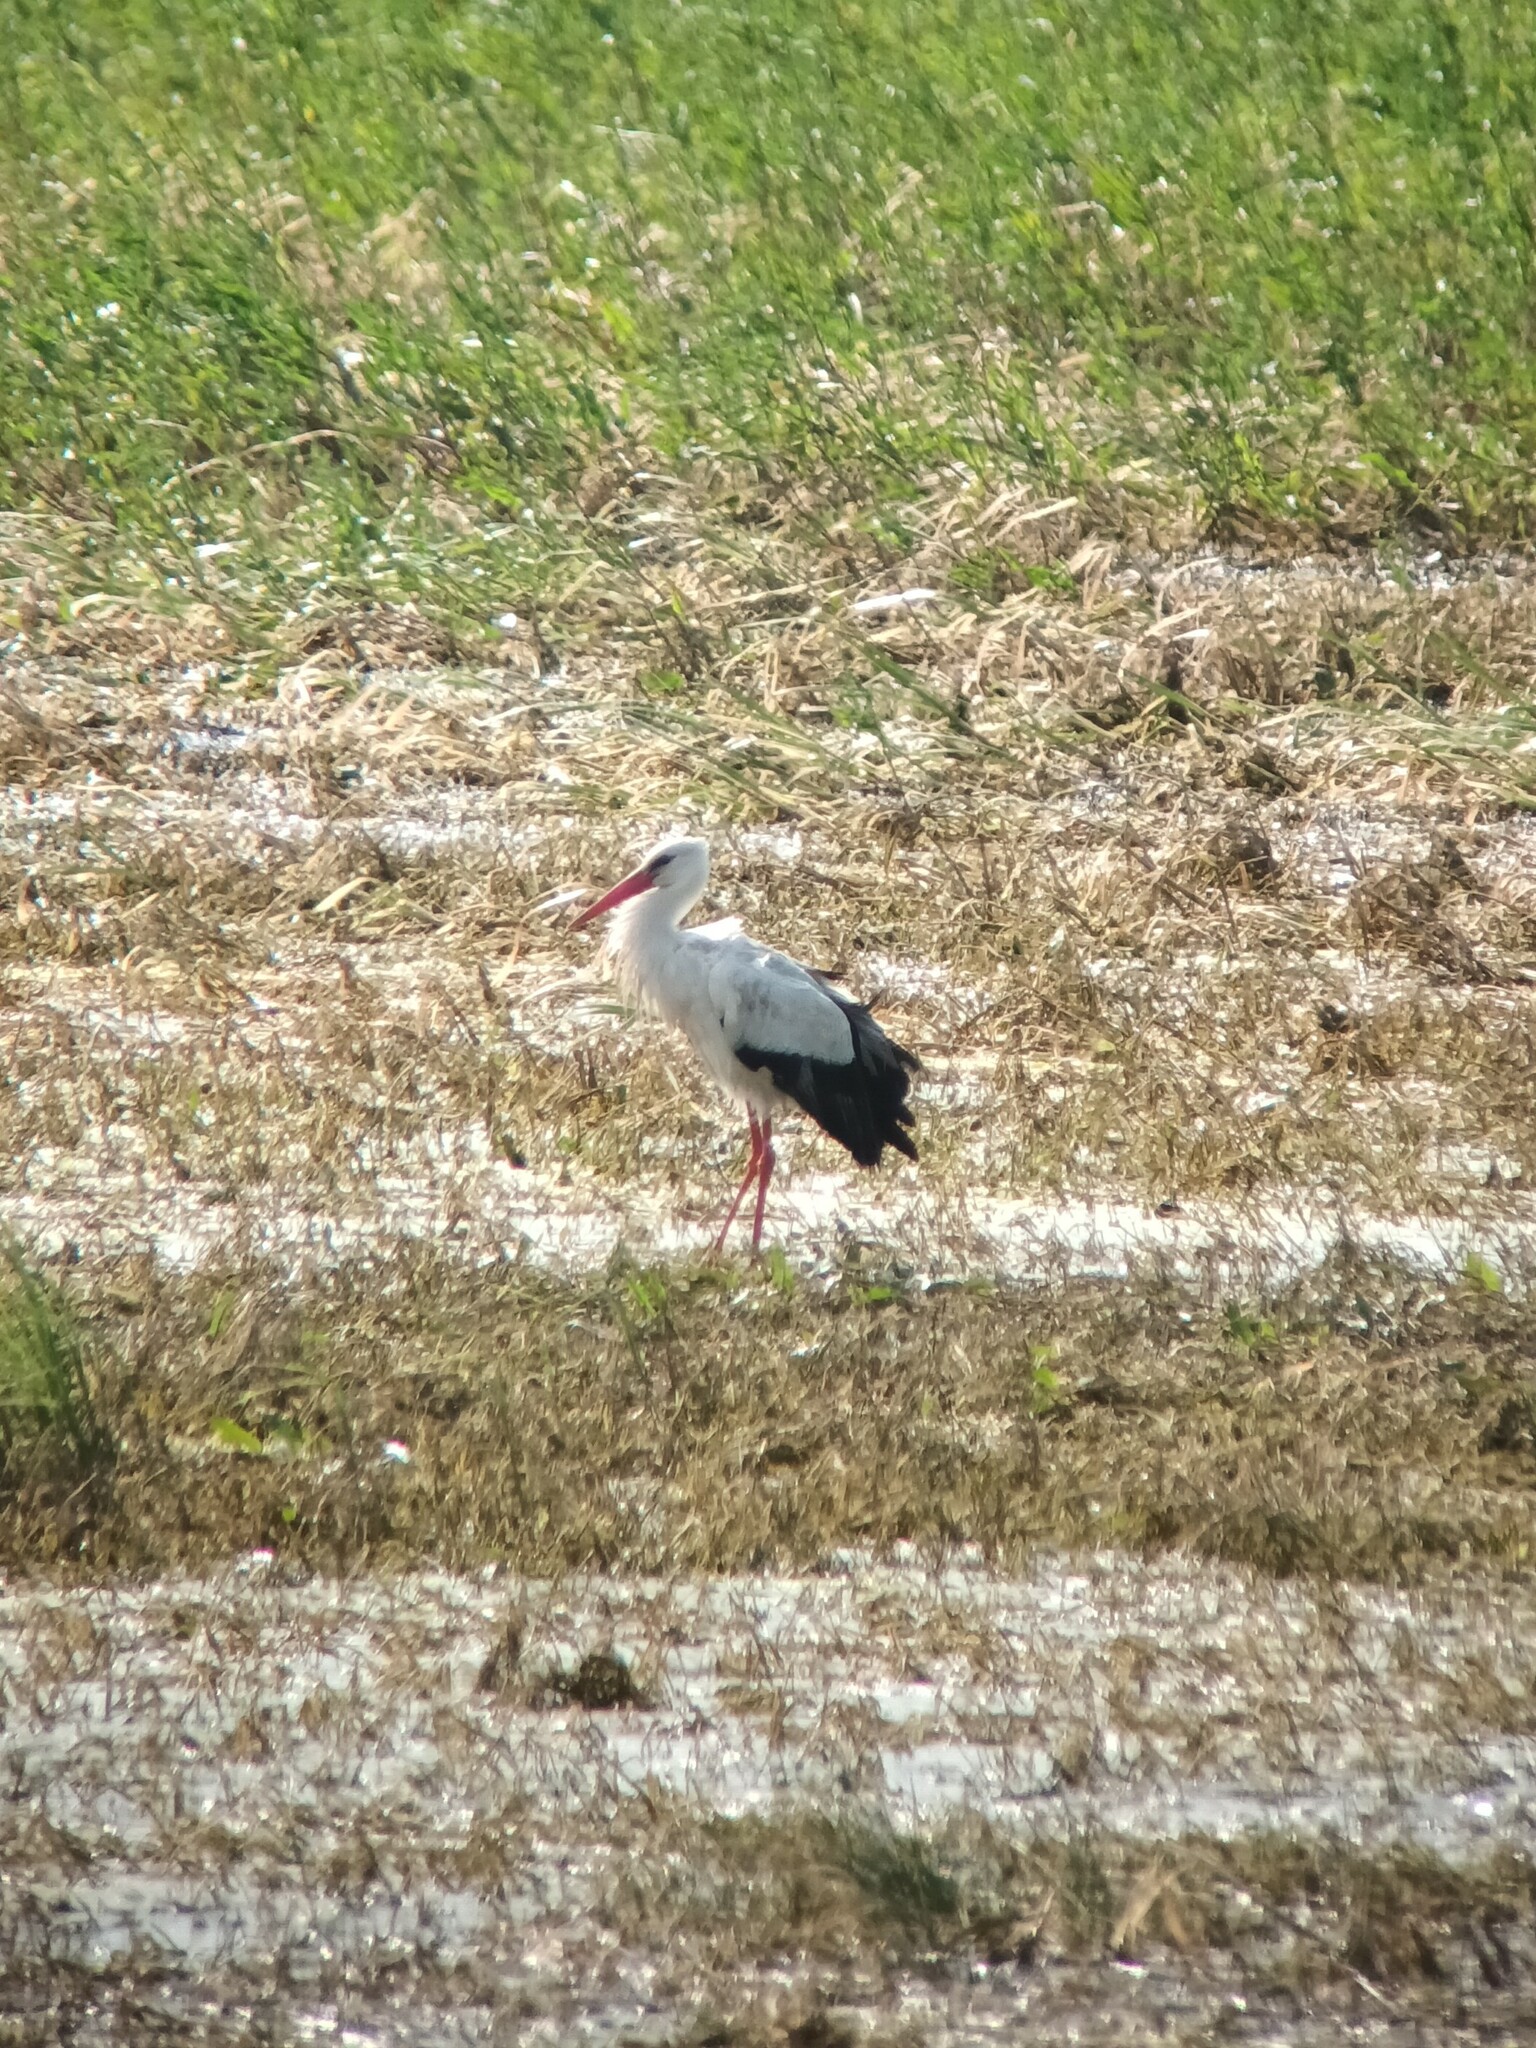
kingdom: Animalia
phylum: Chordata
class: Aves
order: Ciconiiformes
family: Ciconiidae
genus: Ciconia
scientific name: Ciconia ciconia
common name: White stork
